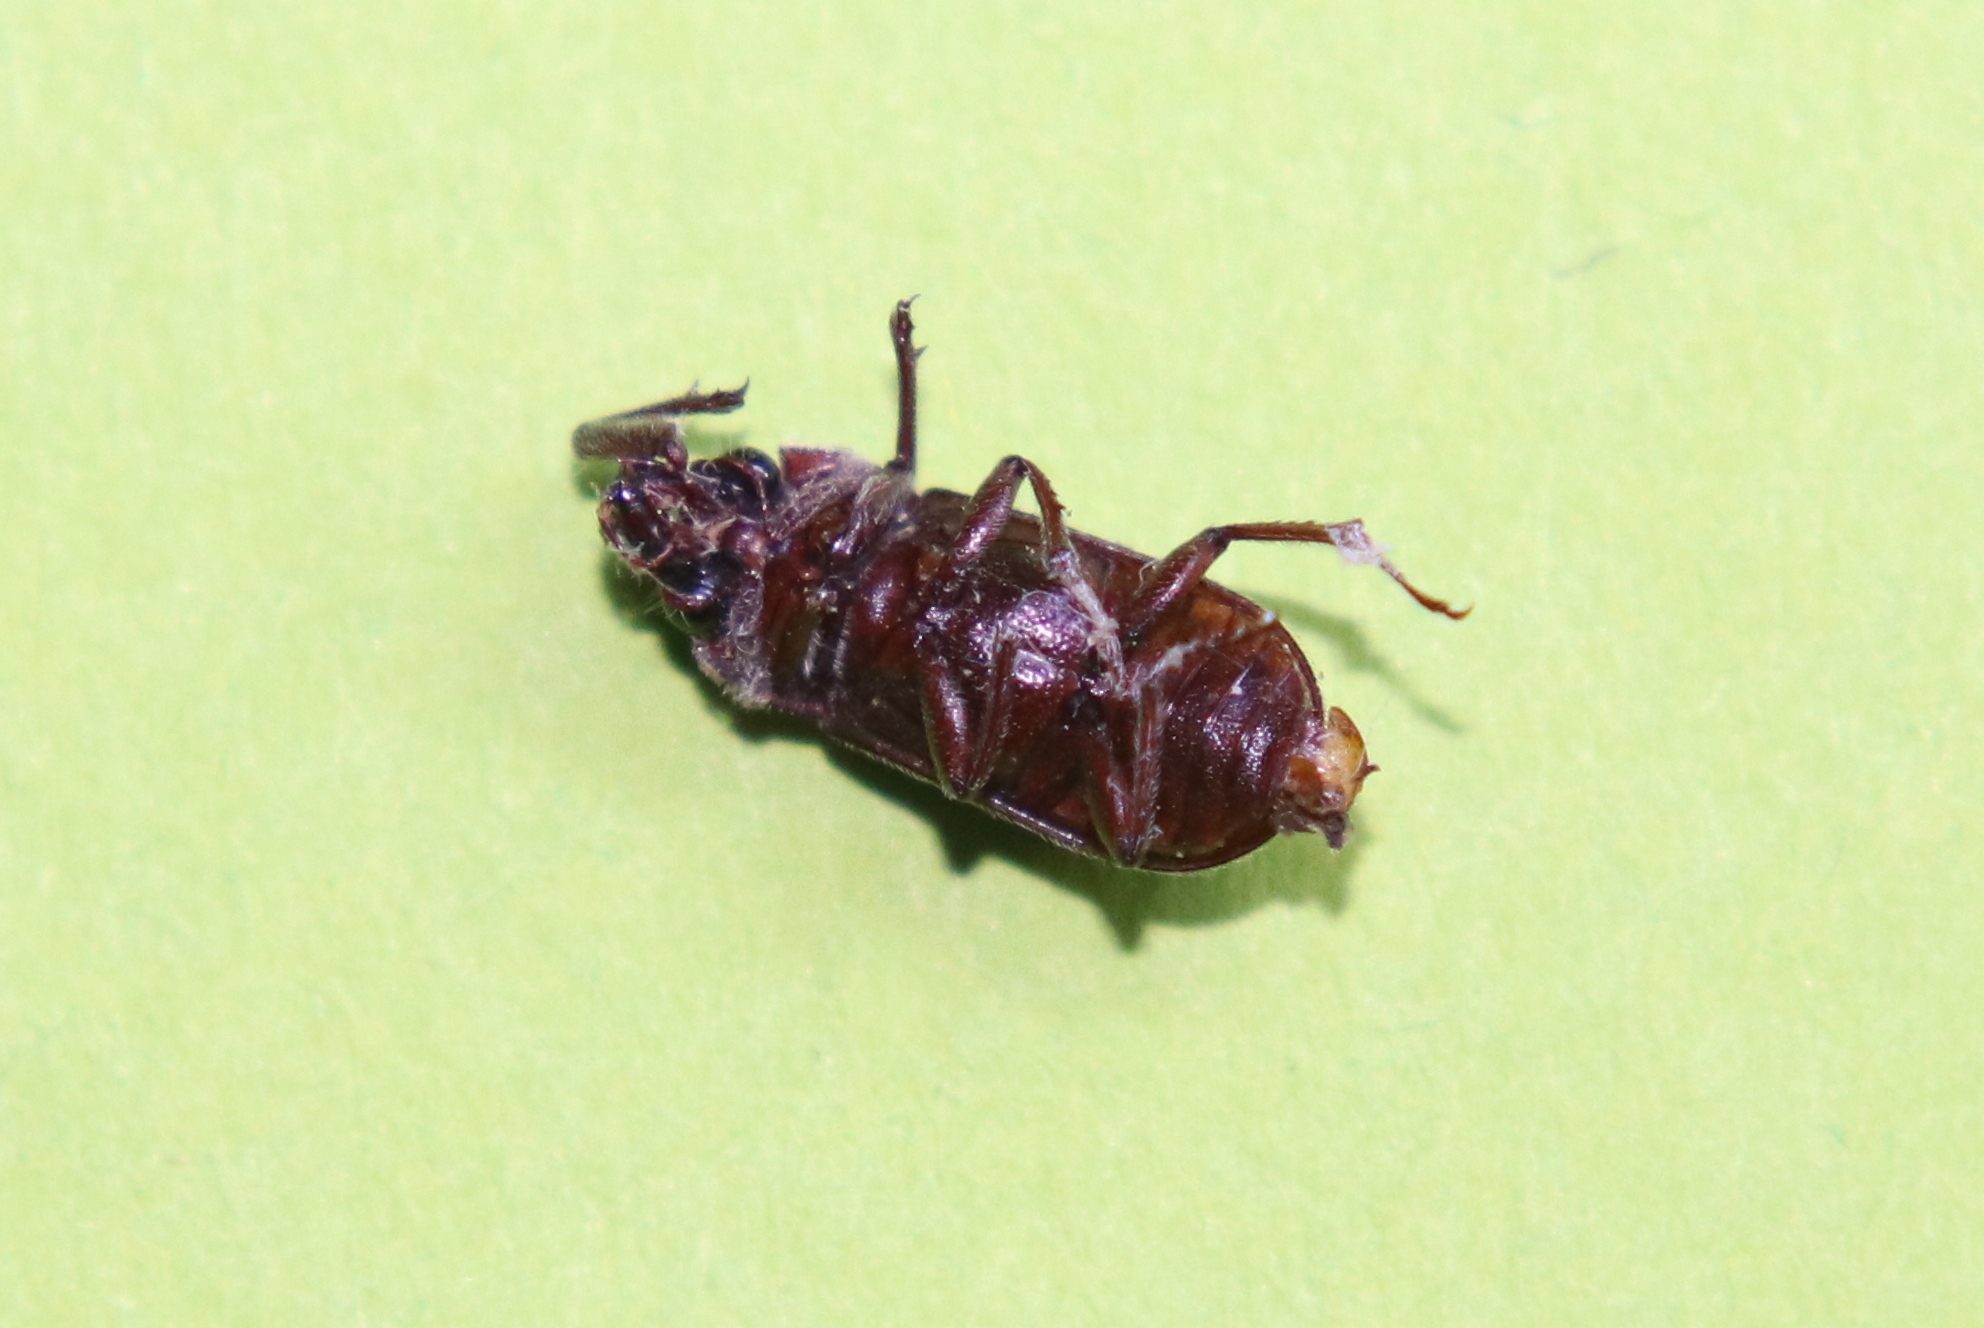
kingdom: Animalia
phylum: Arthropoda
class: Insecta
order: Coleoptera
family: Lucanidae
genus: Mitophyllus
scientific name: Mitophyllus irroratus
